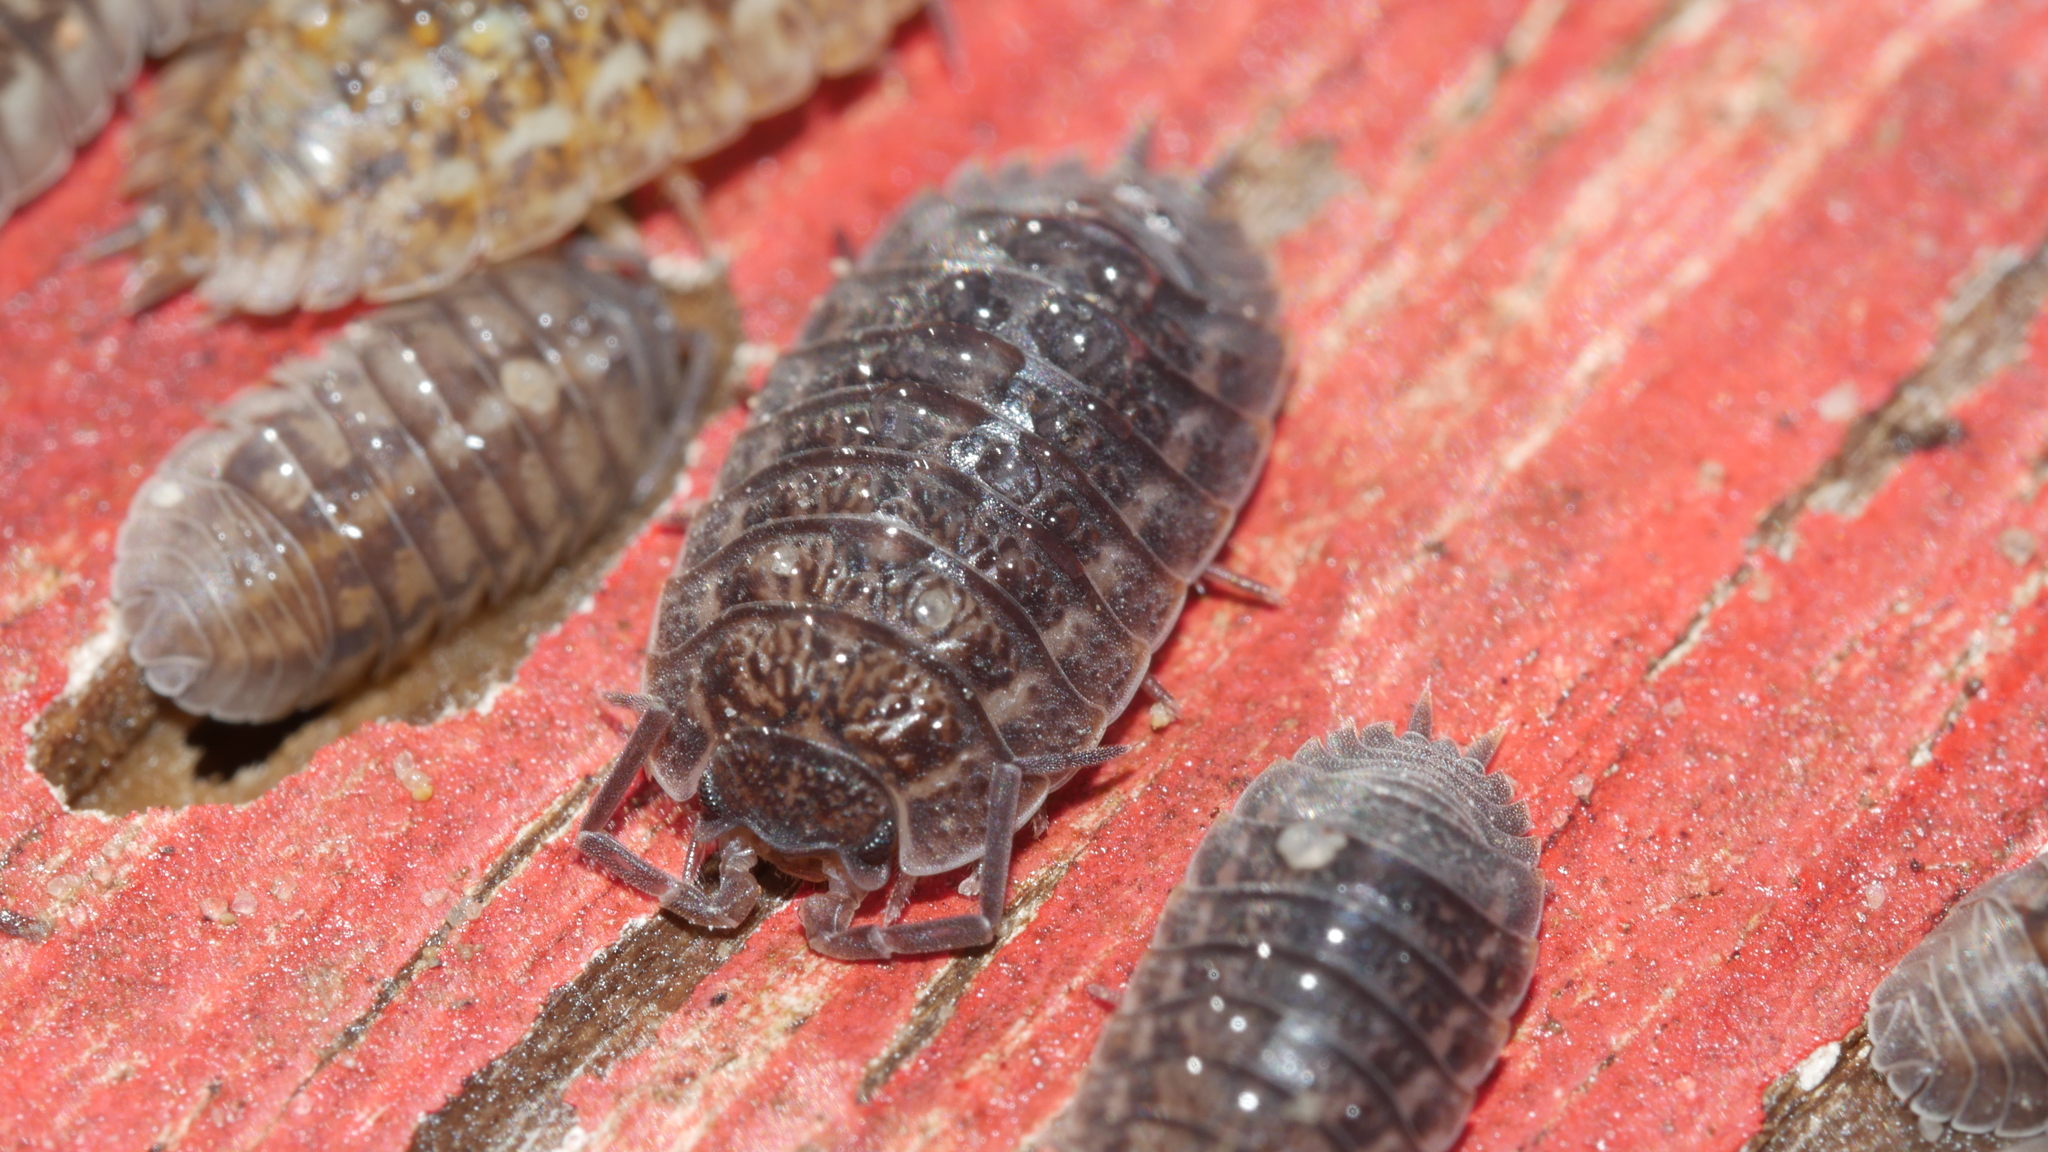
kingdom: Animalia
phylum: Arthropoda
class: Malacostraca
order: Isopoda
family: Trachelipodidae
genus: Trachelipus
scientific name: Trachelipus rathkii
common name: Isopod
